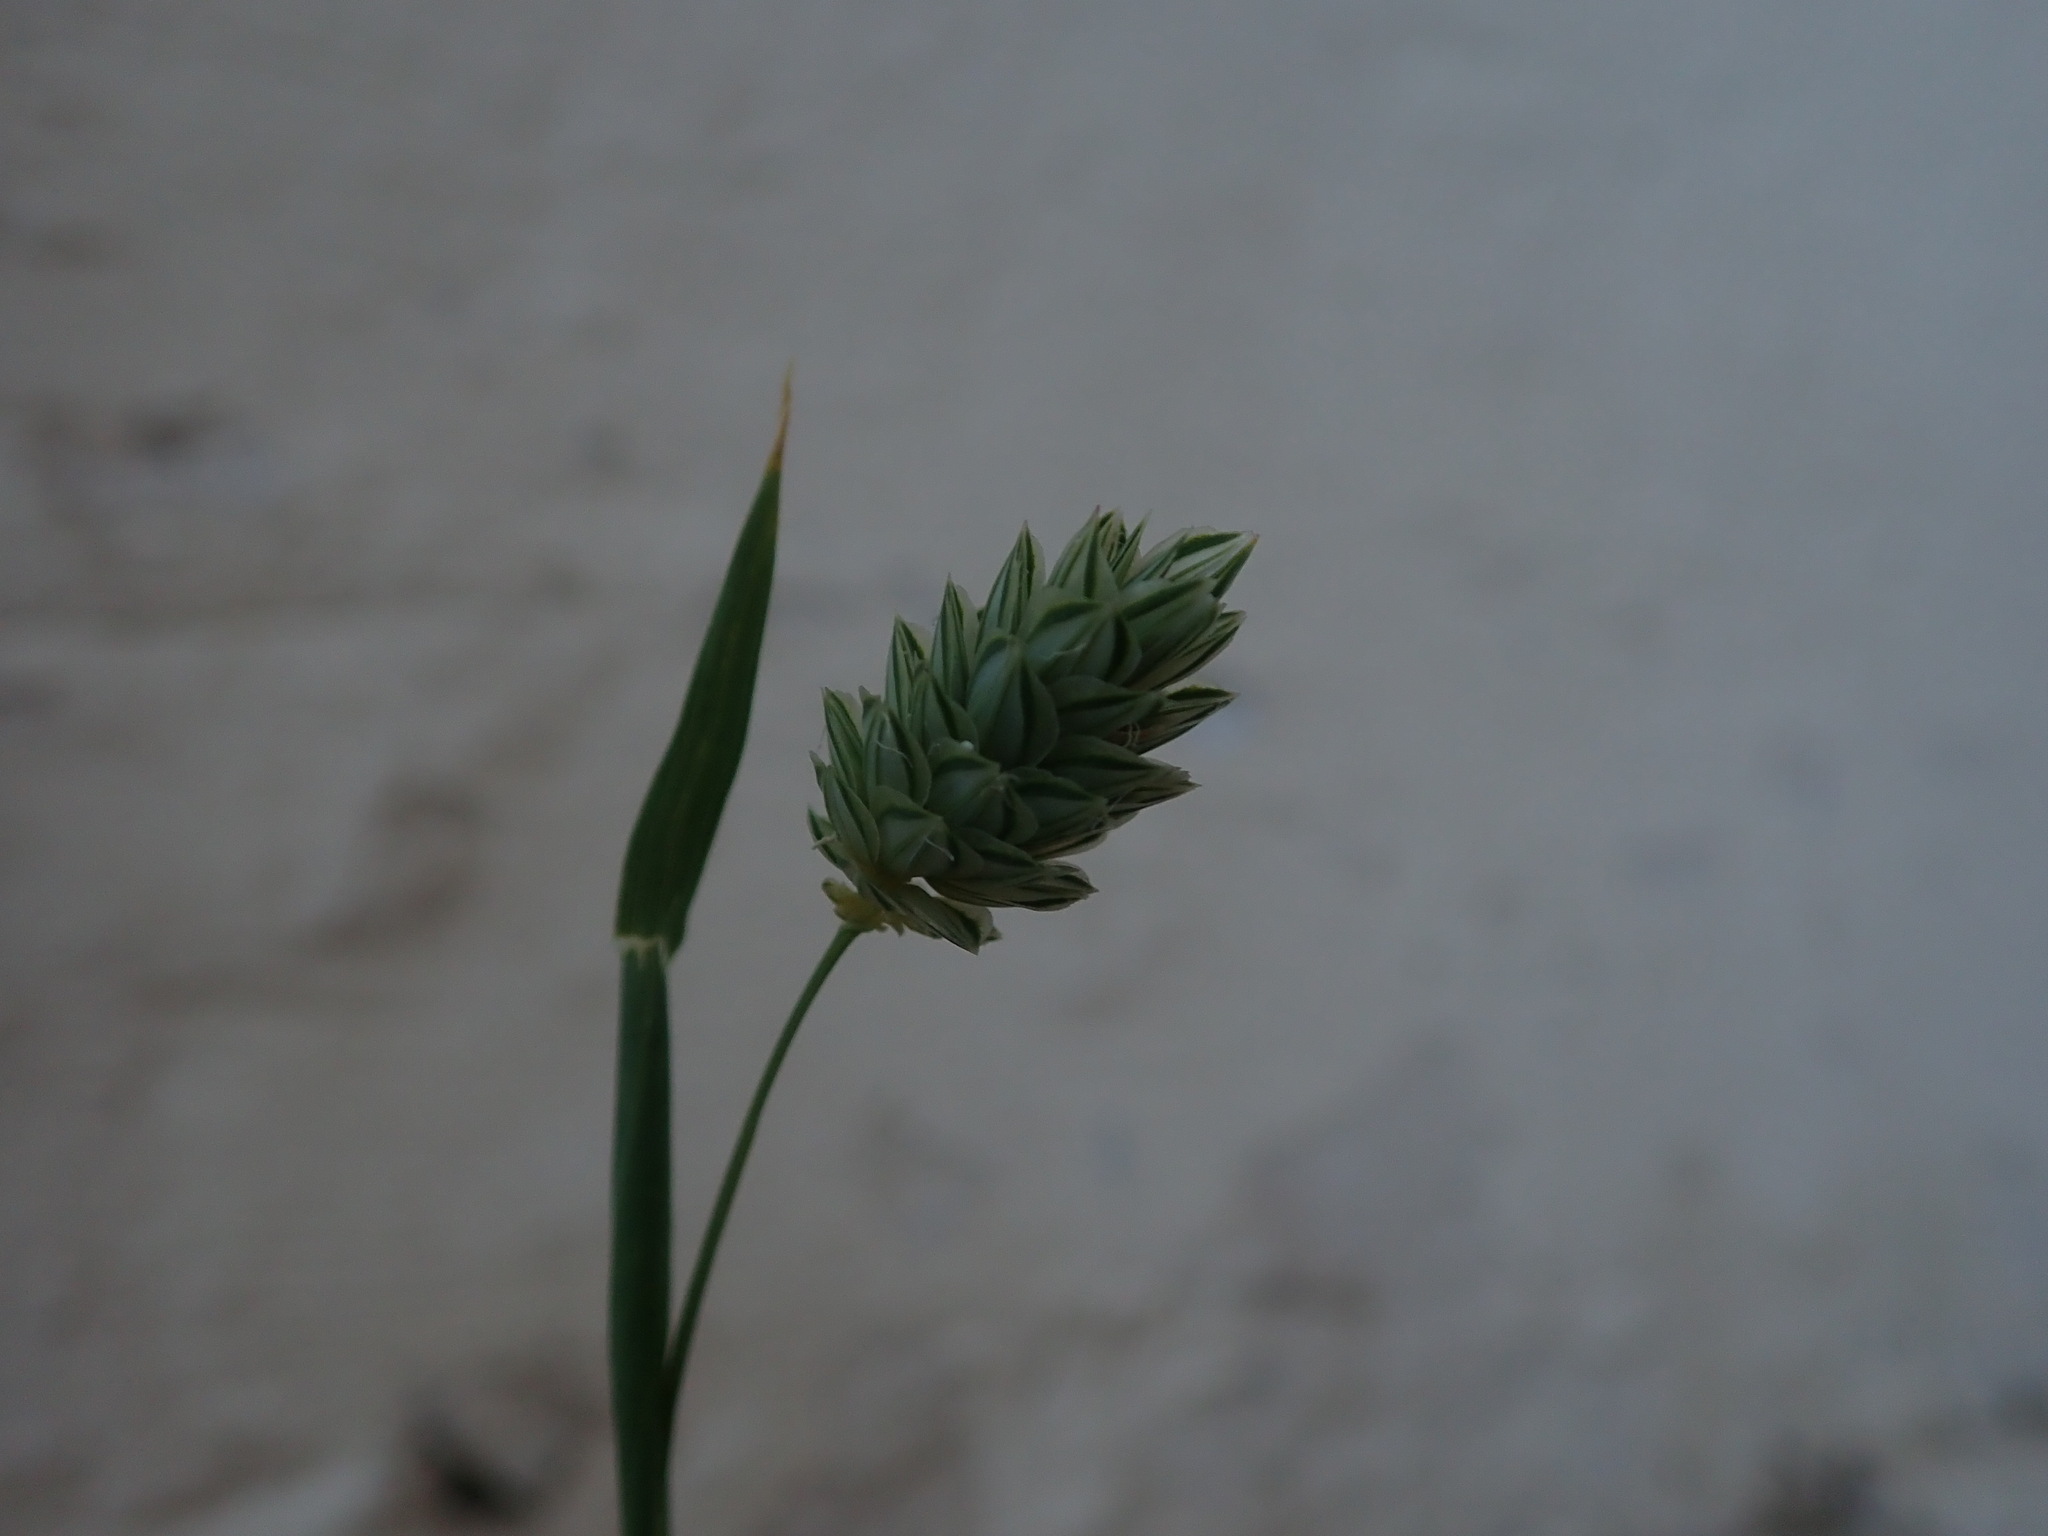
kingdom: Plantae
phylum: Tracheophyta
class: Liliopsida
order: Poales
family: Poaceae
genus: Phalaris
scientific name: Phalaris canariensis
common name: Annual canarygrass
